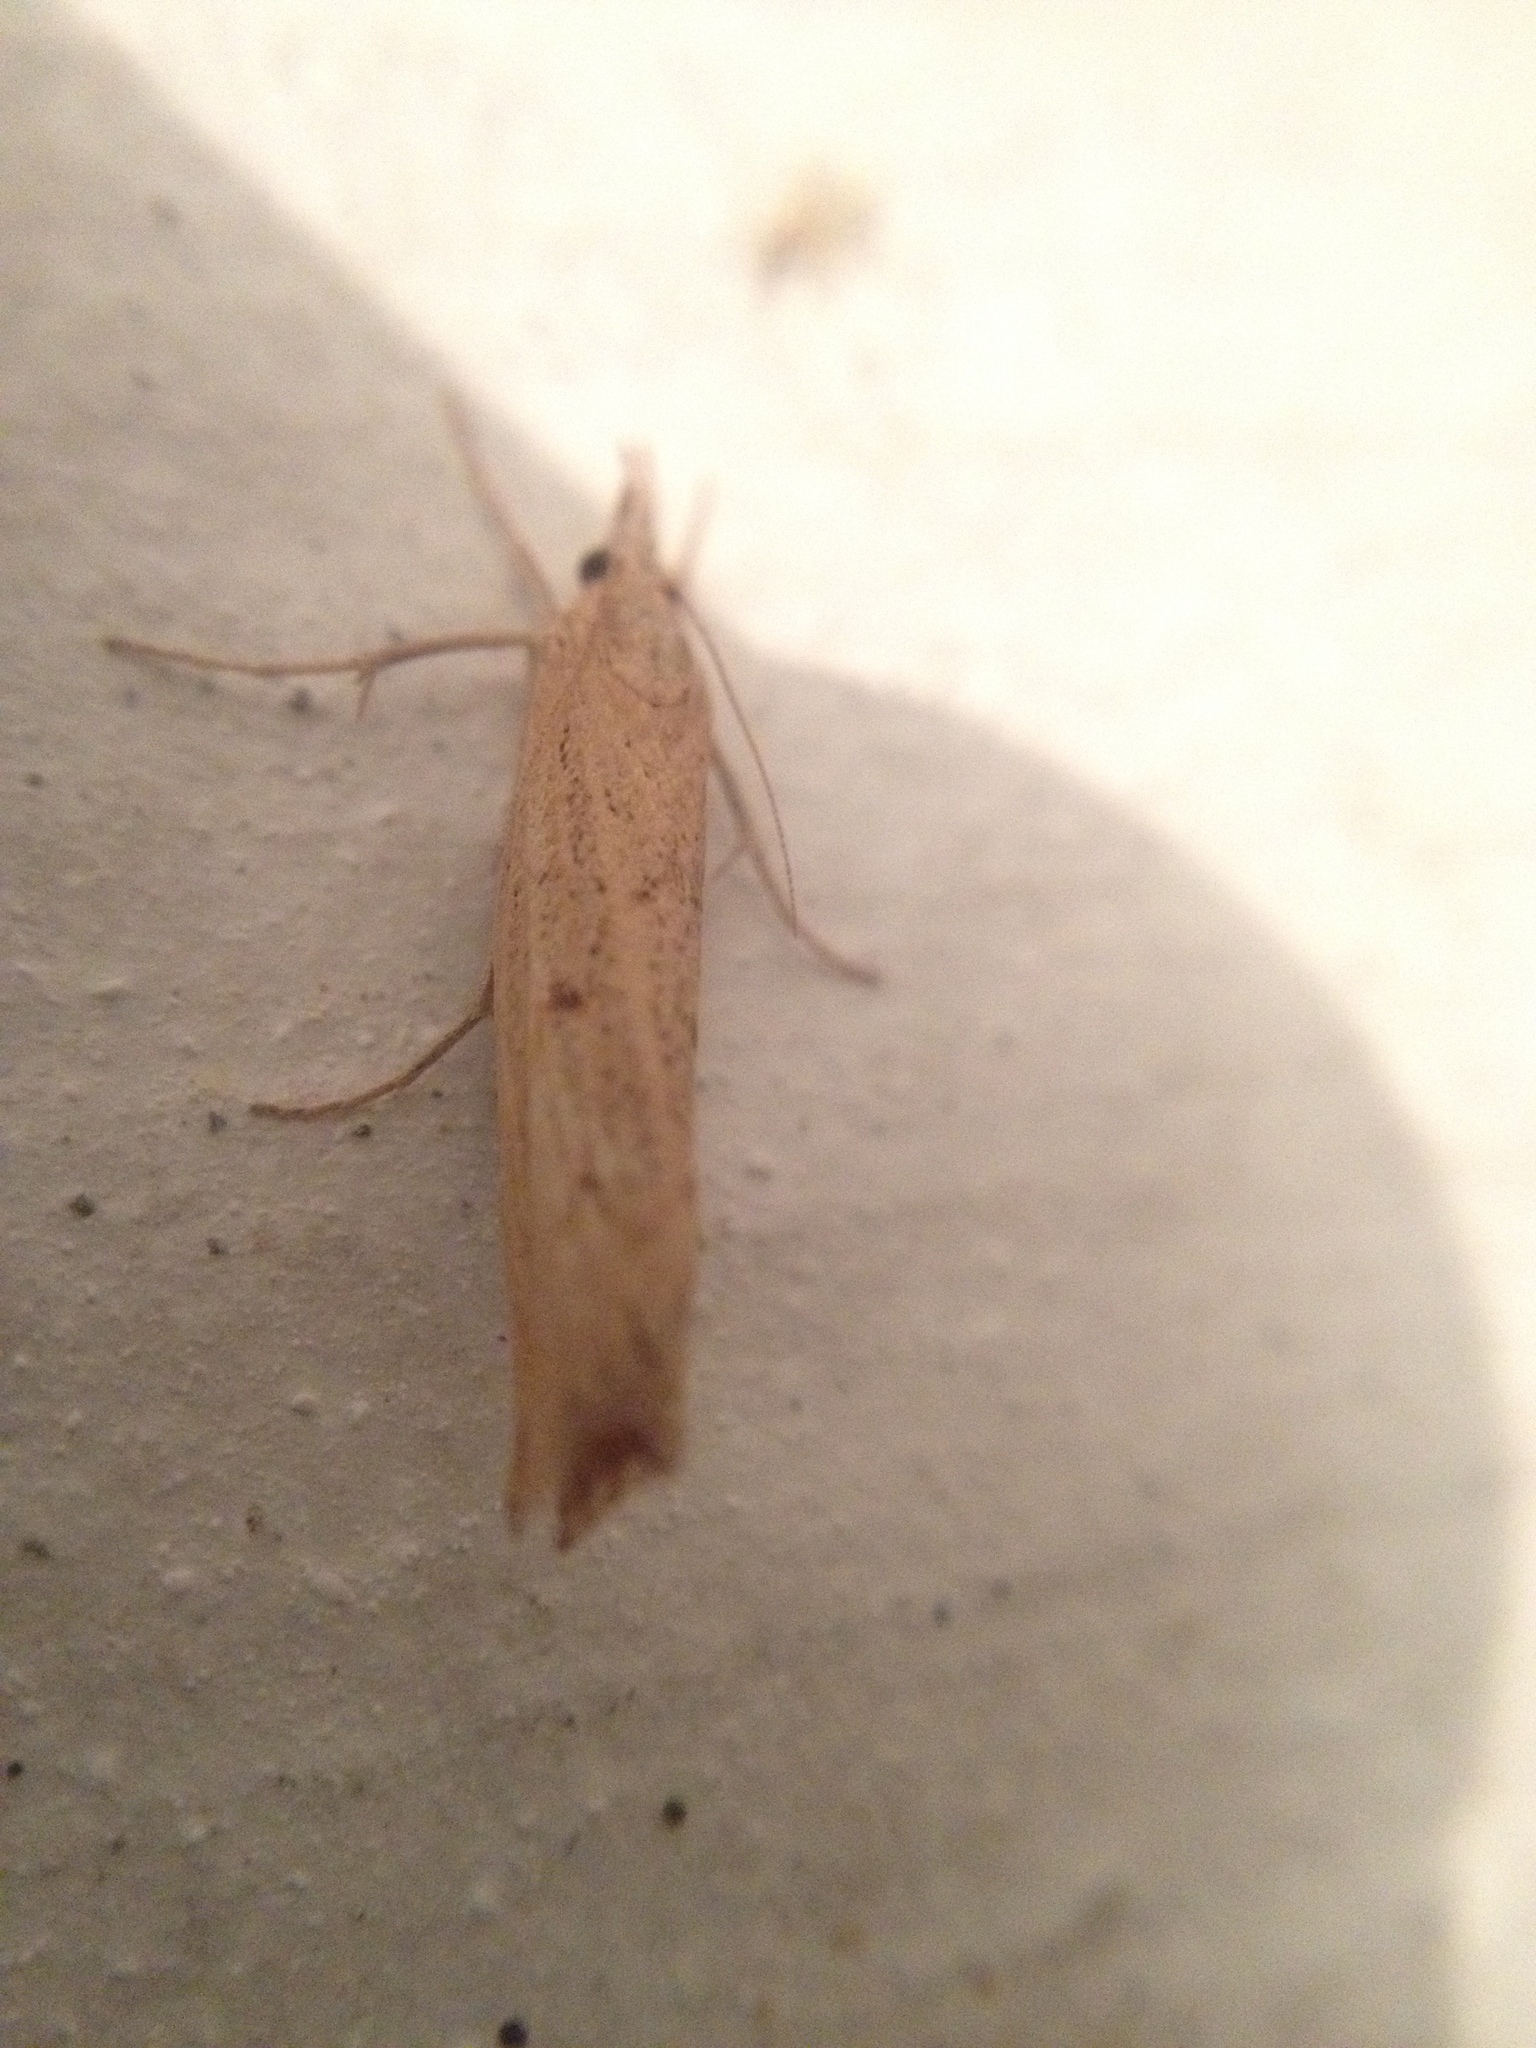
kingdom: Animalia
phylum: Arthropoda
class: Insecta
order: Lepidoptera
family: Crambidae
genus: Pediasia
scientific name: Pediasia contaminella
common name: Waste grass-veneer
